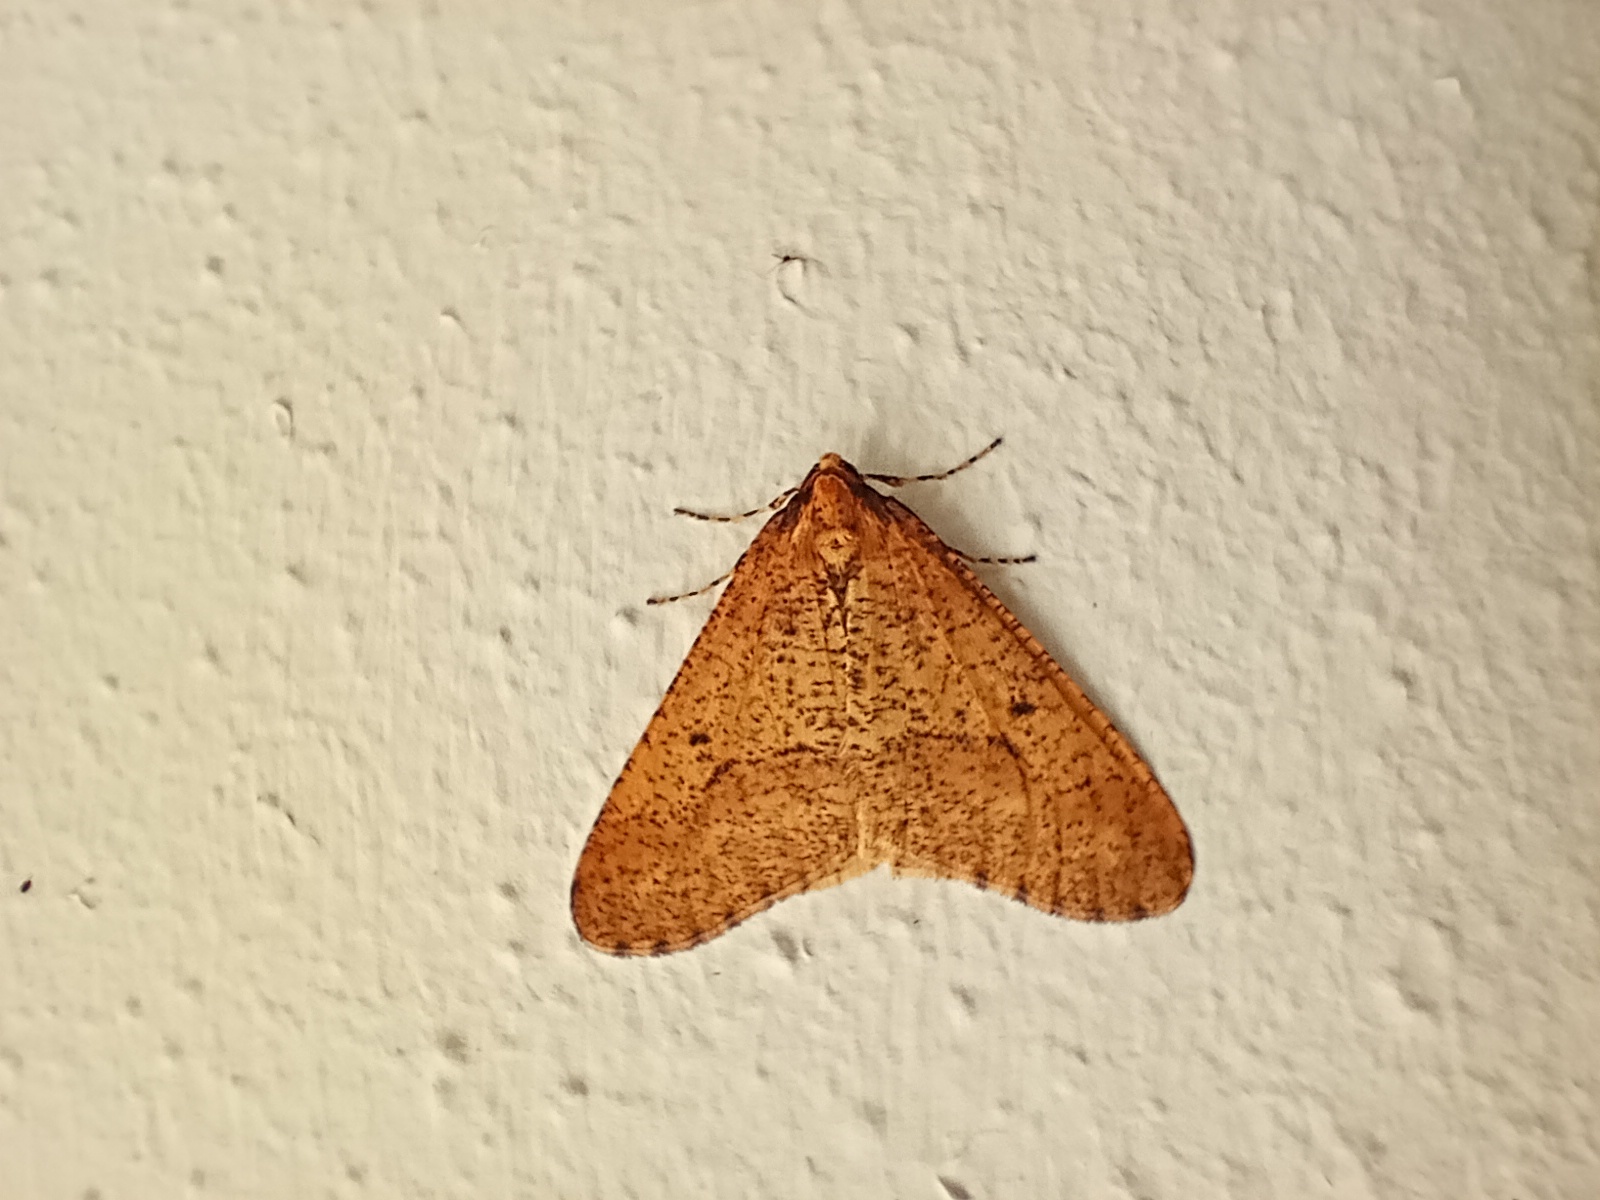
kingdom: Animalia
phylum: Arthropoda
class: Insecta
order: Lepidoptera
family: Geometridae
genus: Erannis
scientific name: Erannis defoliaria
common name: Mottled umber
